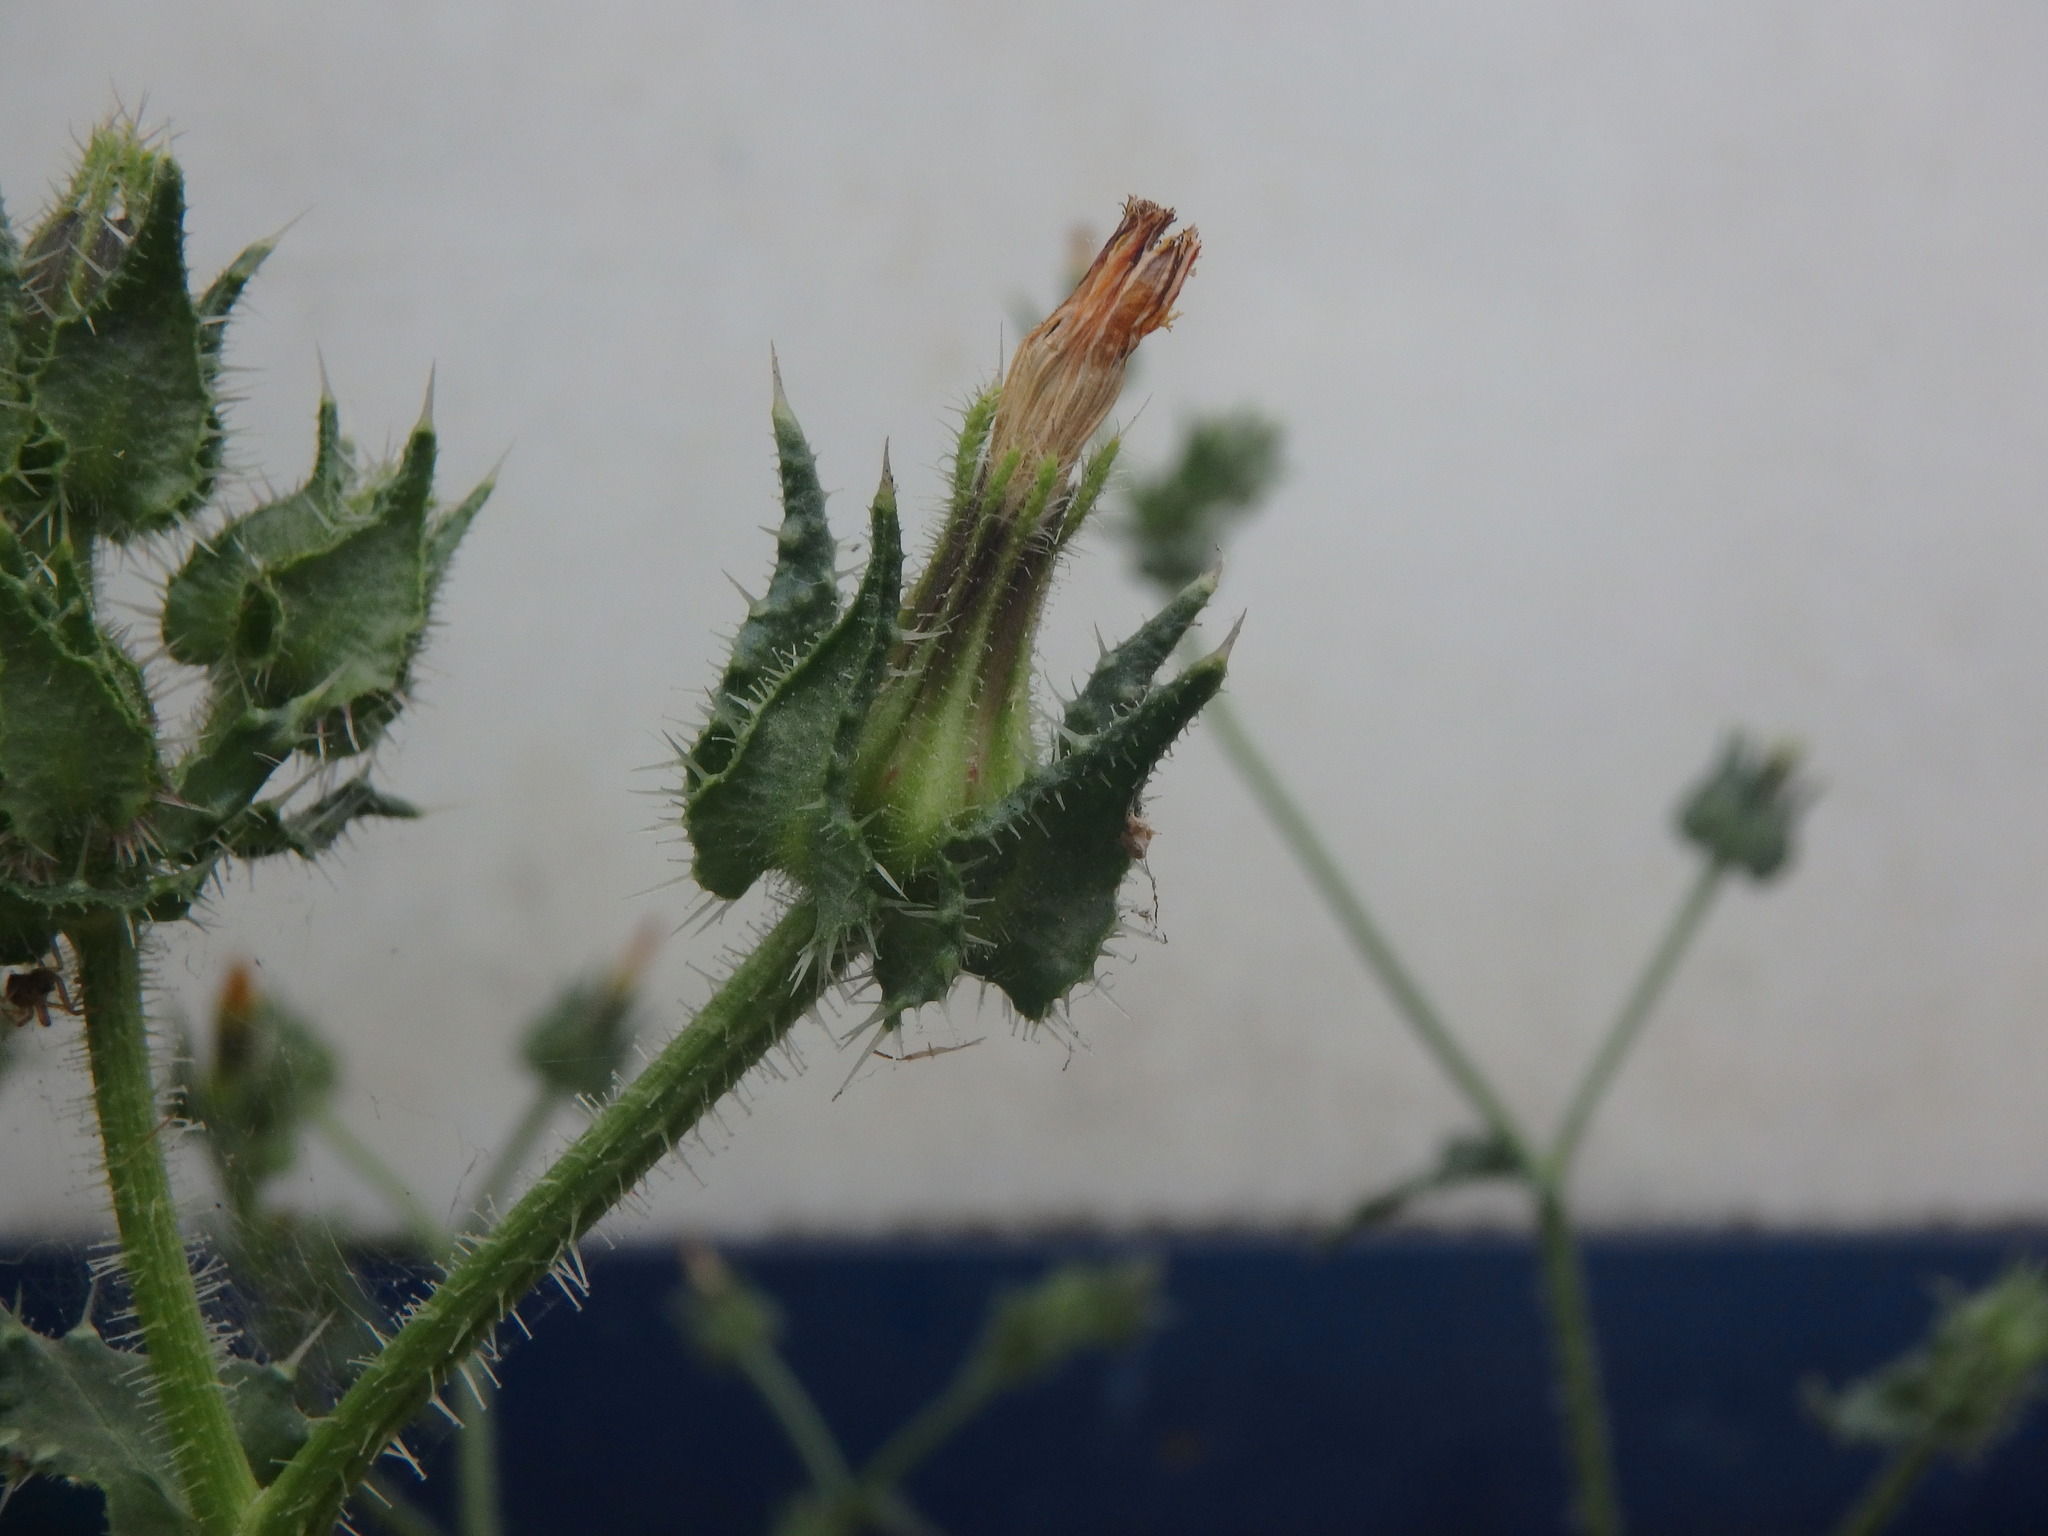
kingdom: Plantae
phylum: Tracheophyta
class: Magnoliopsida
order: Asterales
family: Asteraceae
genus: Helminthotheca
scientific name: Helminthotheca echioides
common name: Ox-tongue
